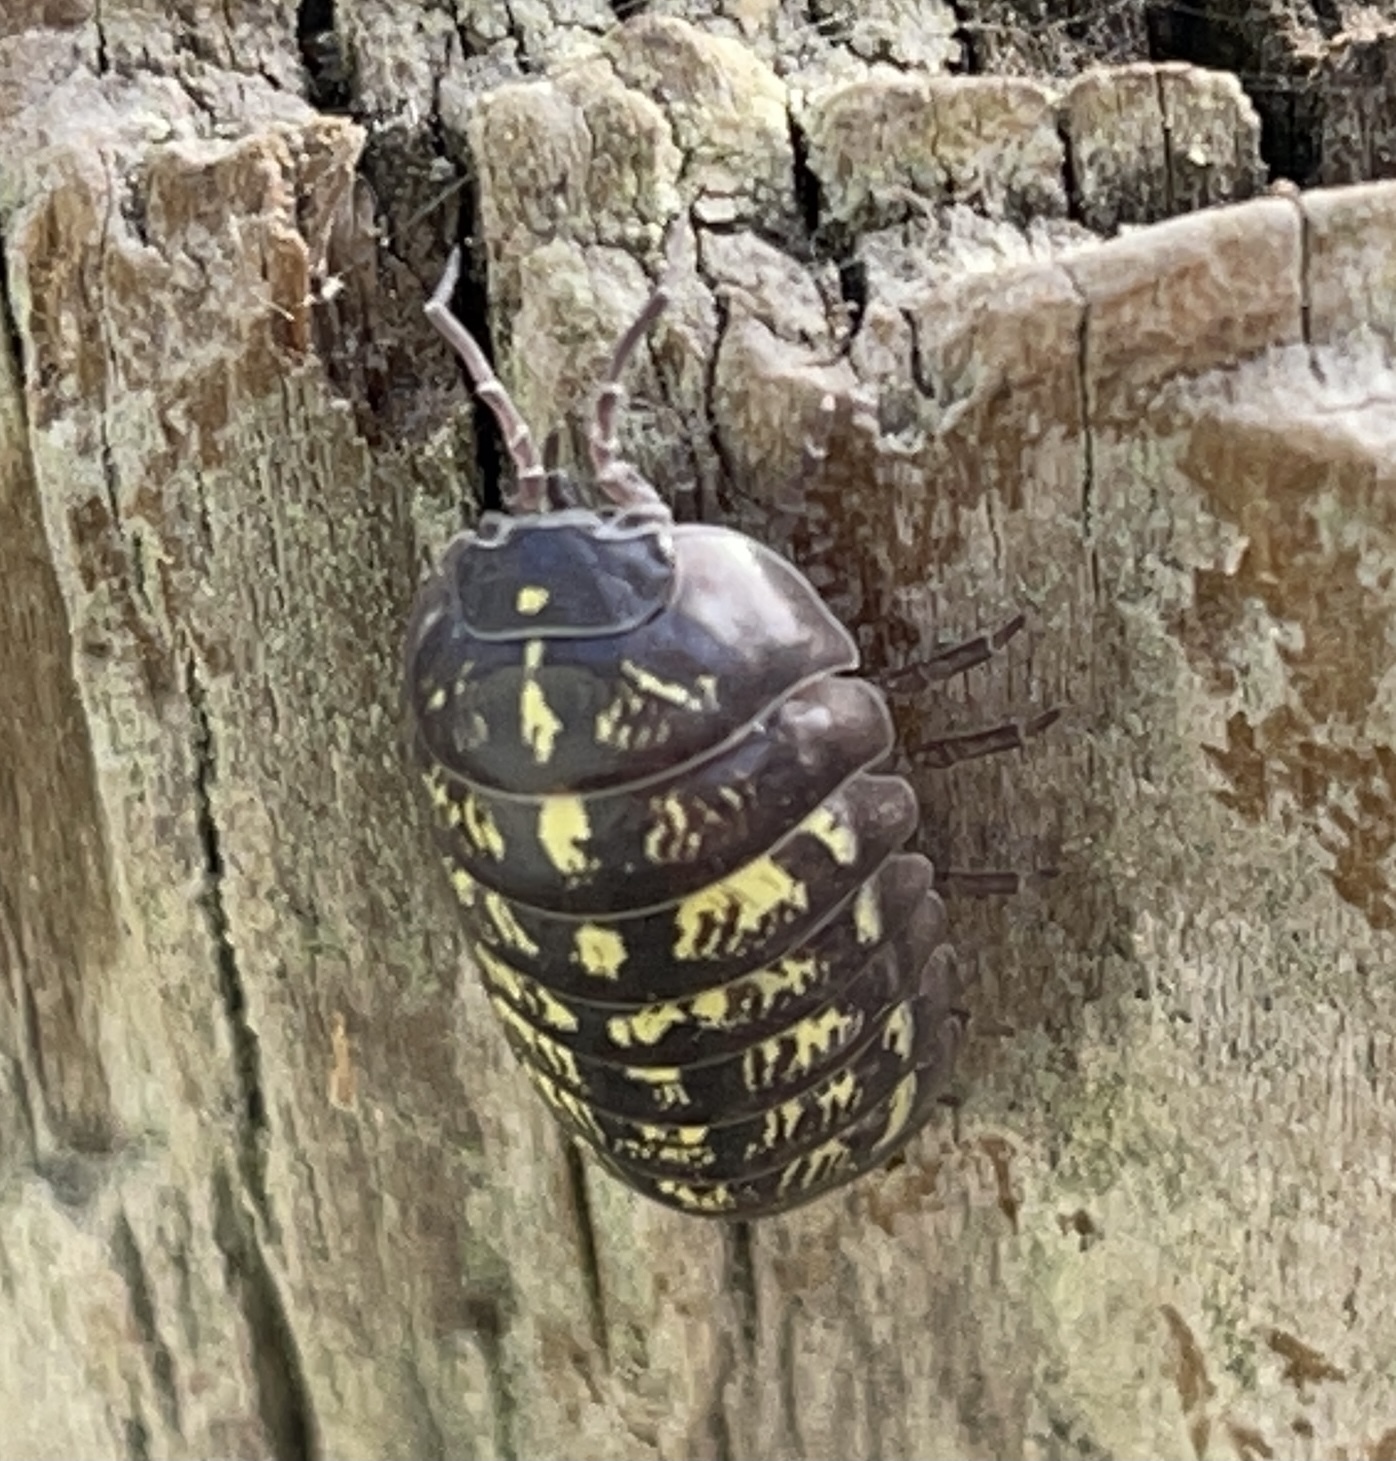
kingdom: Animalia
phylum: Arthropoda
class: Malacostraca
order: Isopoda
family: Armadillidiidae
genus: Armadillidium
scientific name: Armadillidium vulgare
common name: Common pill woodlouse
